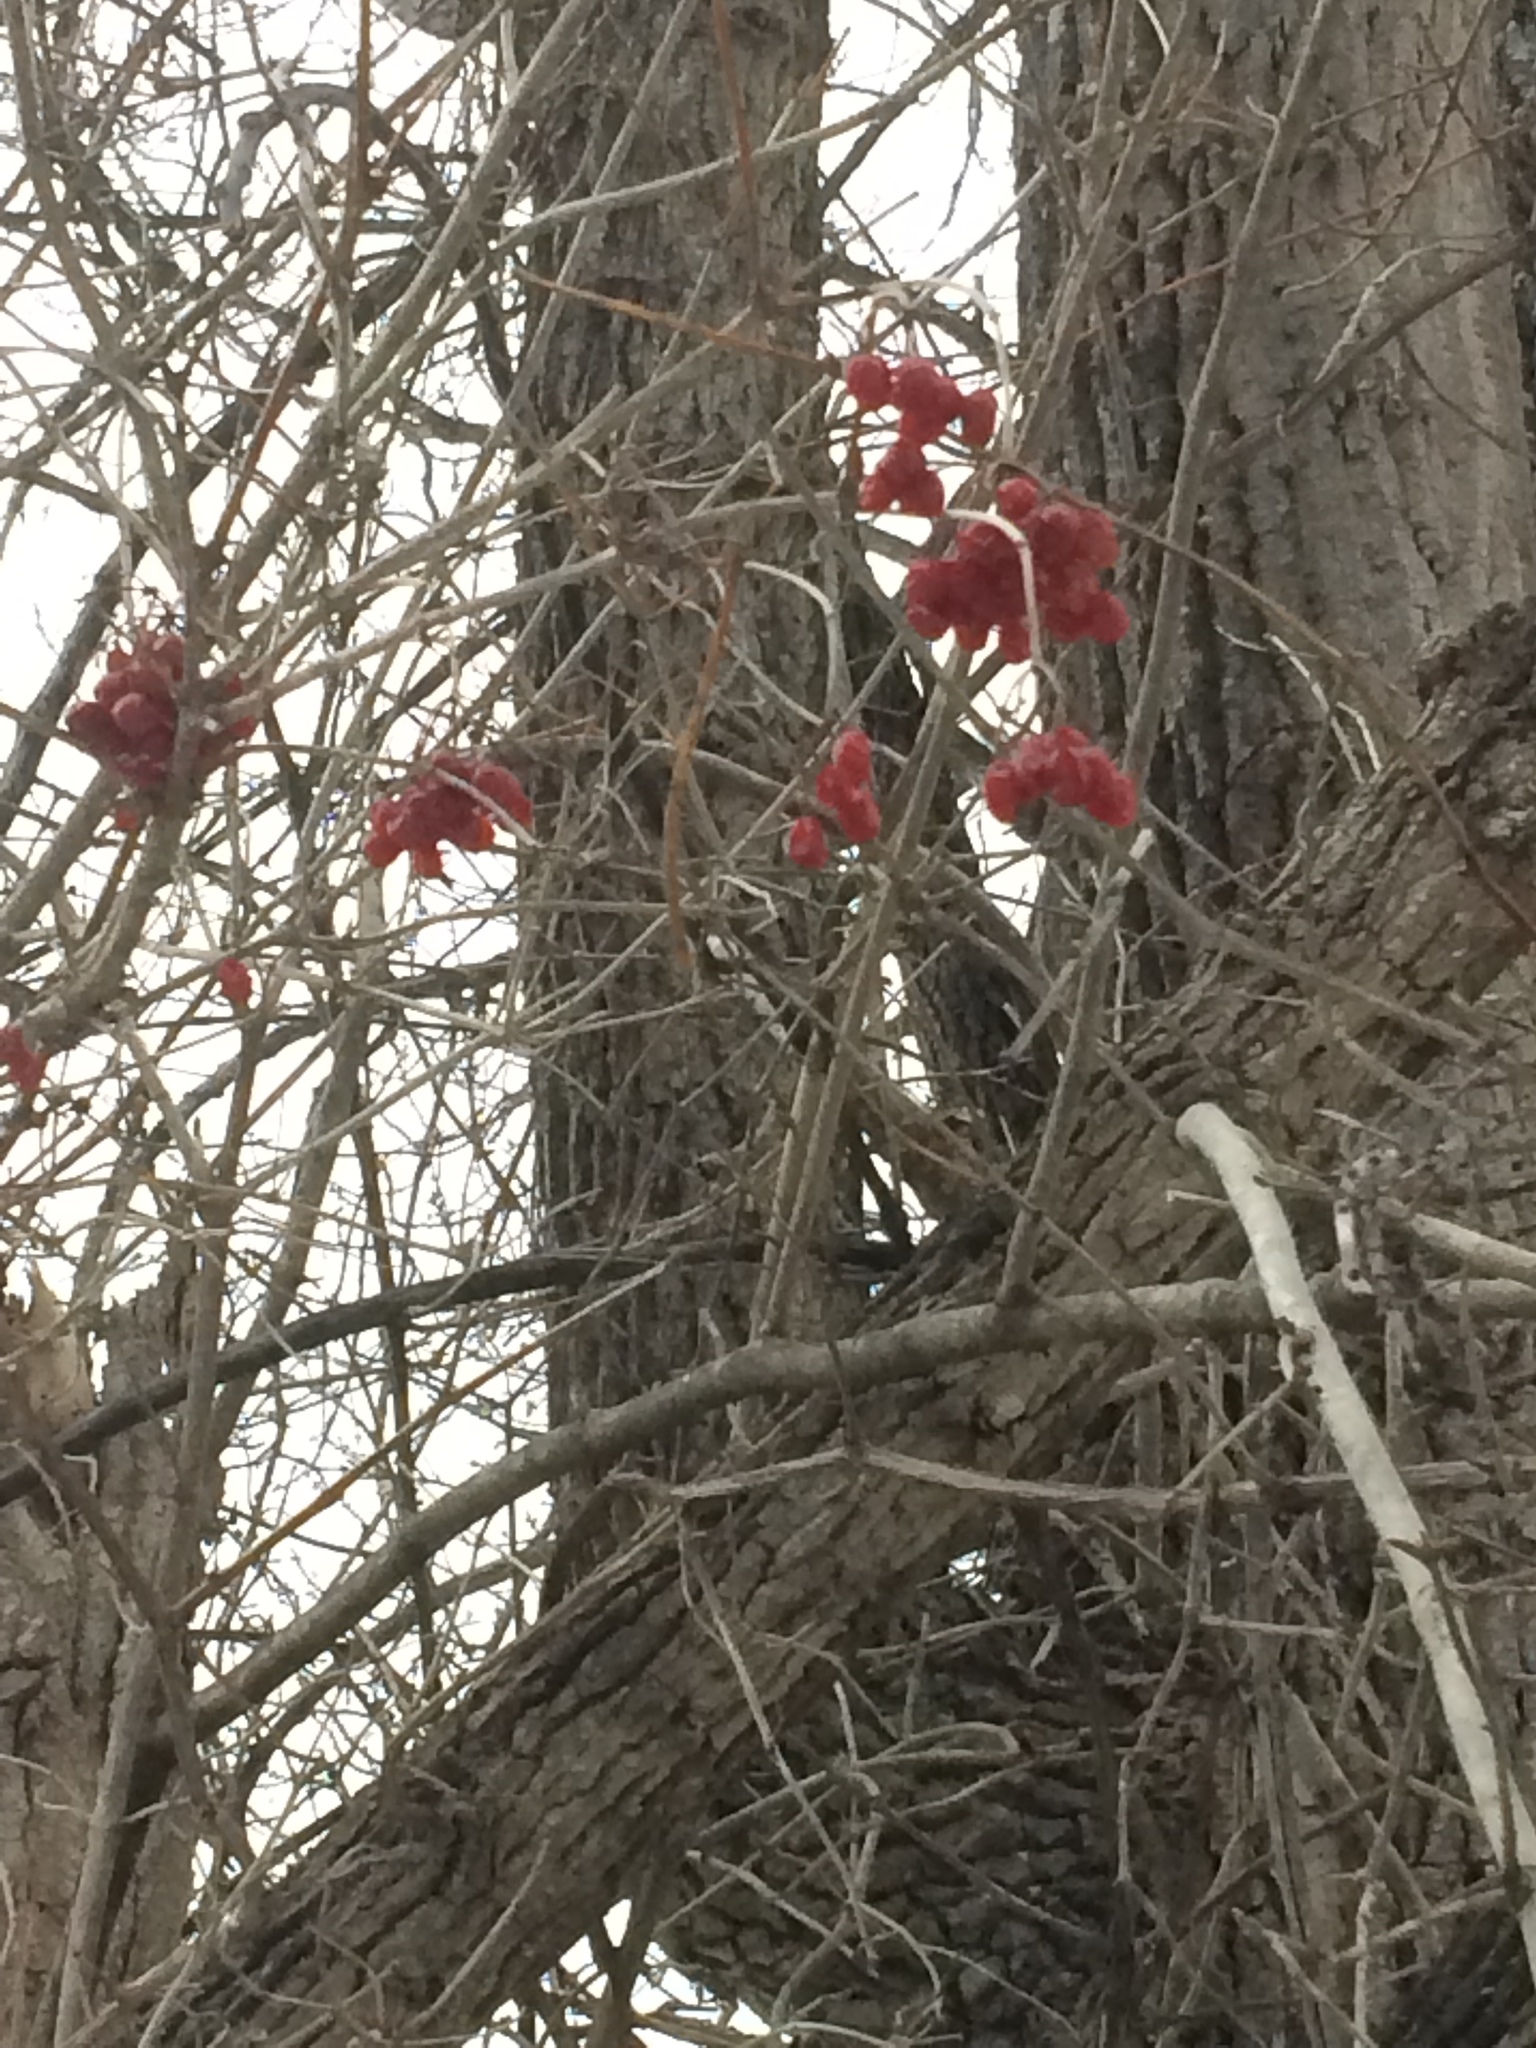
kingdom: Plantae
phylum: Tracheophyta
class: Magnoliopsida
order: Dipsacales
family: Viburnaceae
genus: Viburnum
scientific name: Viburnum opulus
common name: Guelder-rose
